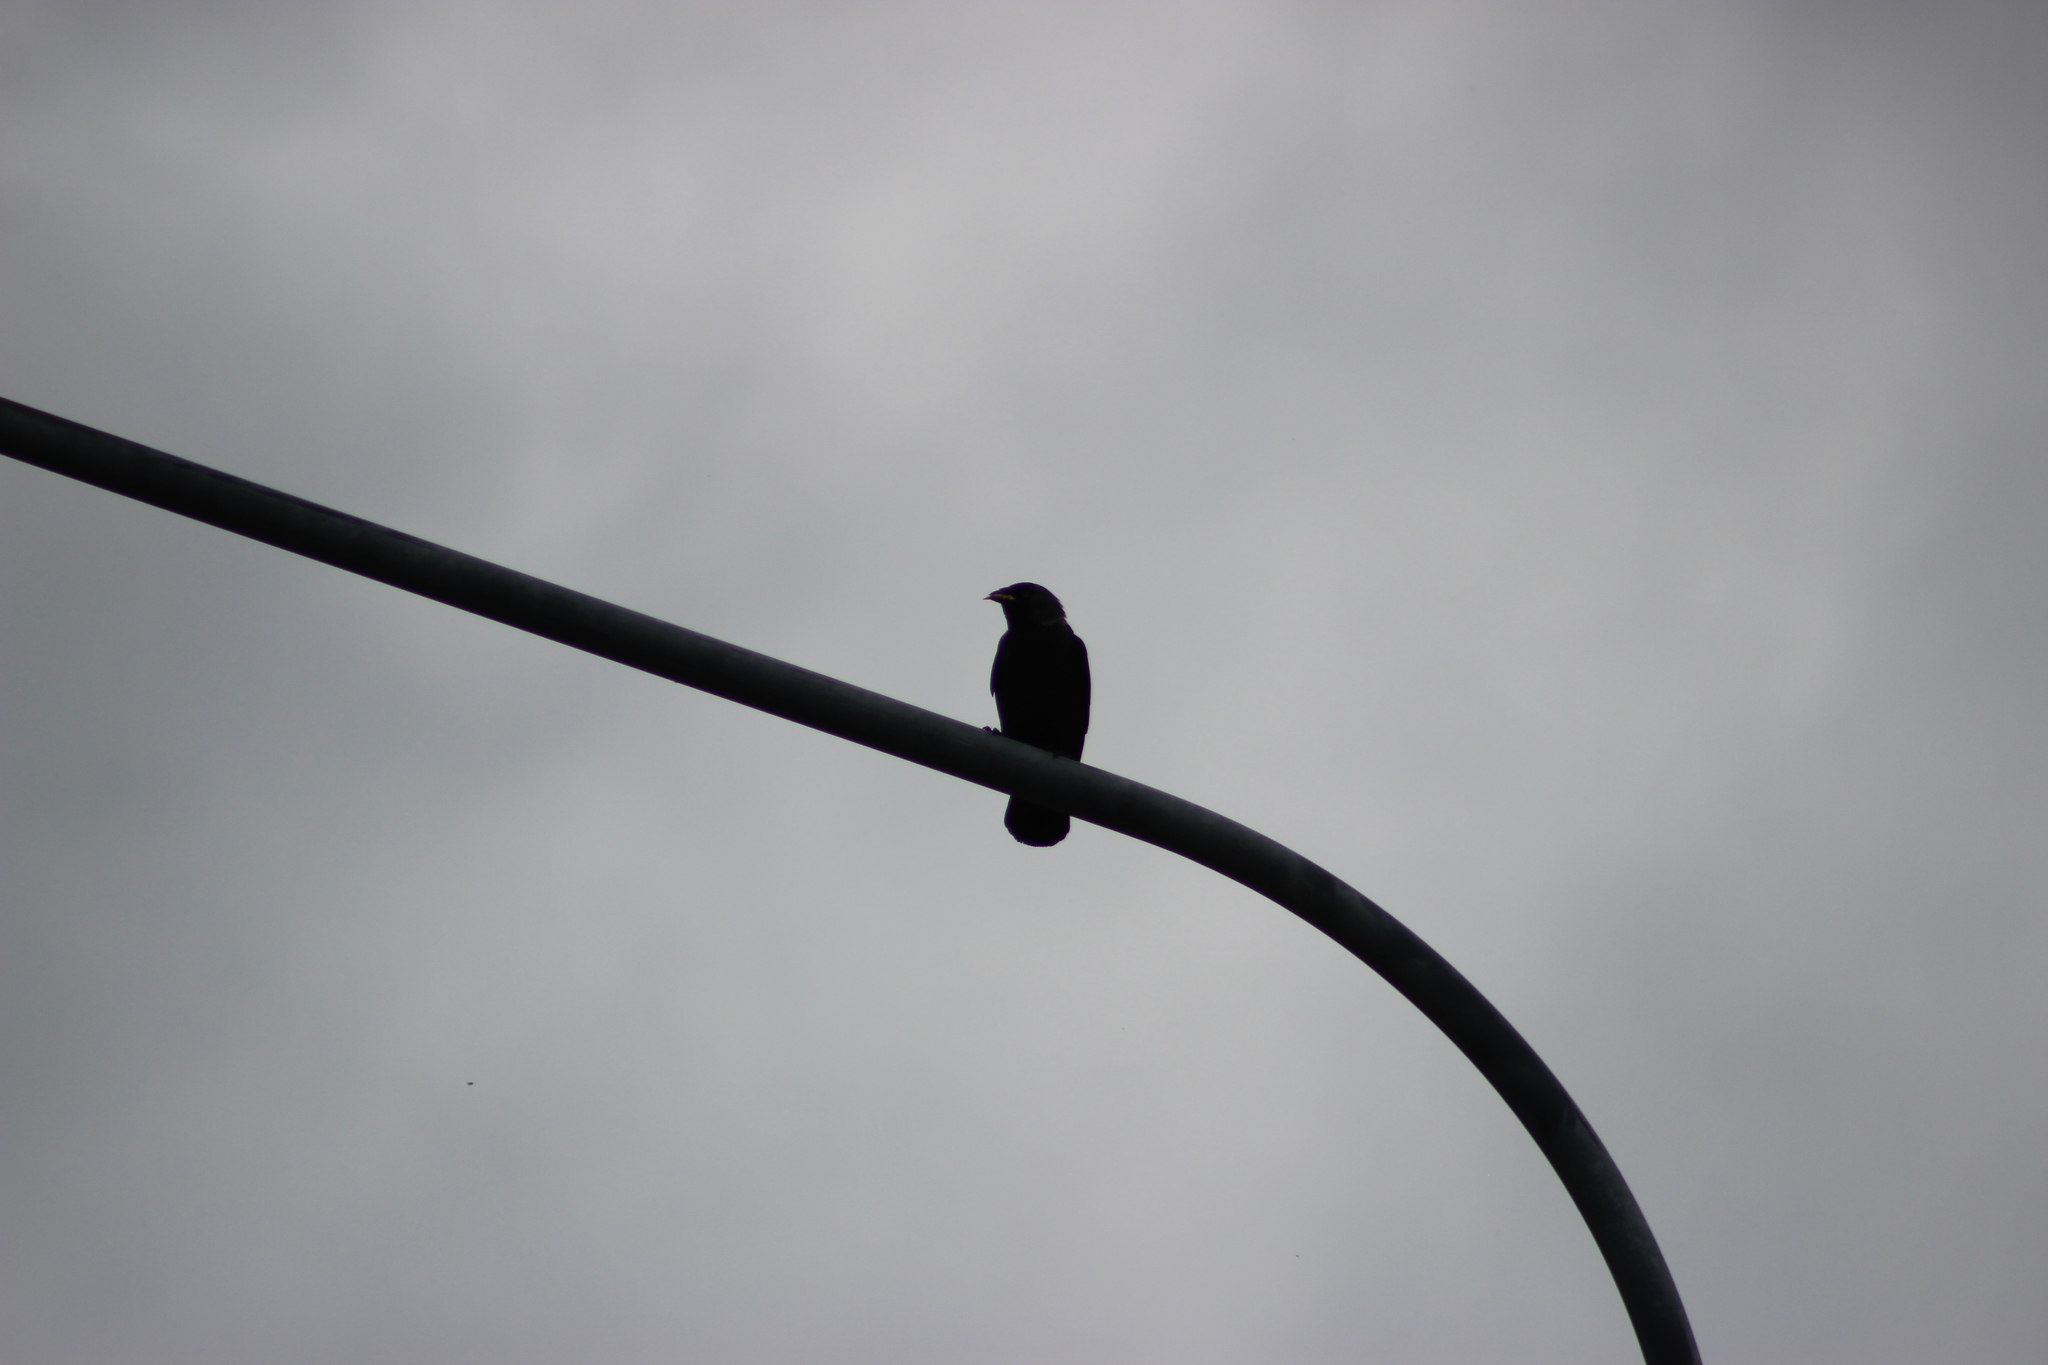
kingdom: Animalia
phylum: Chordata
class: Aves
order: Passeriformes
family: Corvidae
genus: Coloeus
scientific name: Coloeus monedula
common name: Western jackdaw
